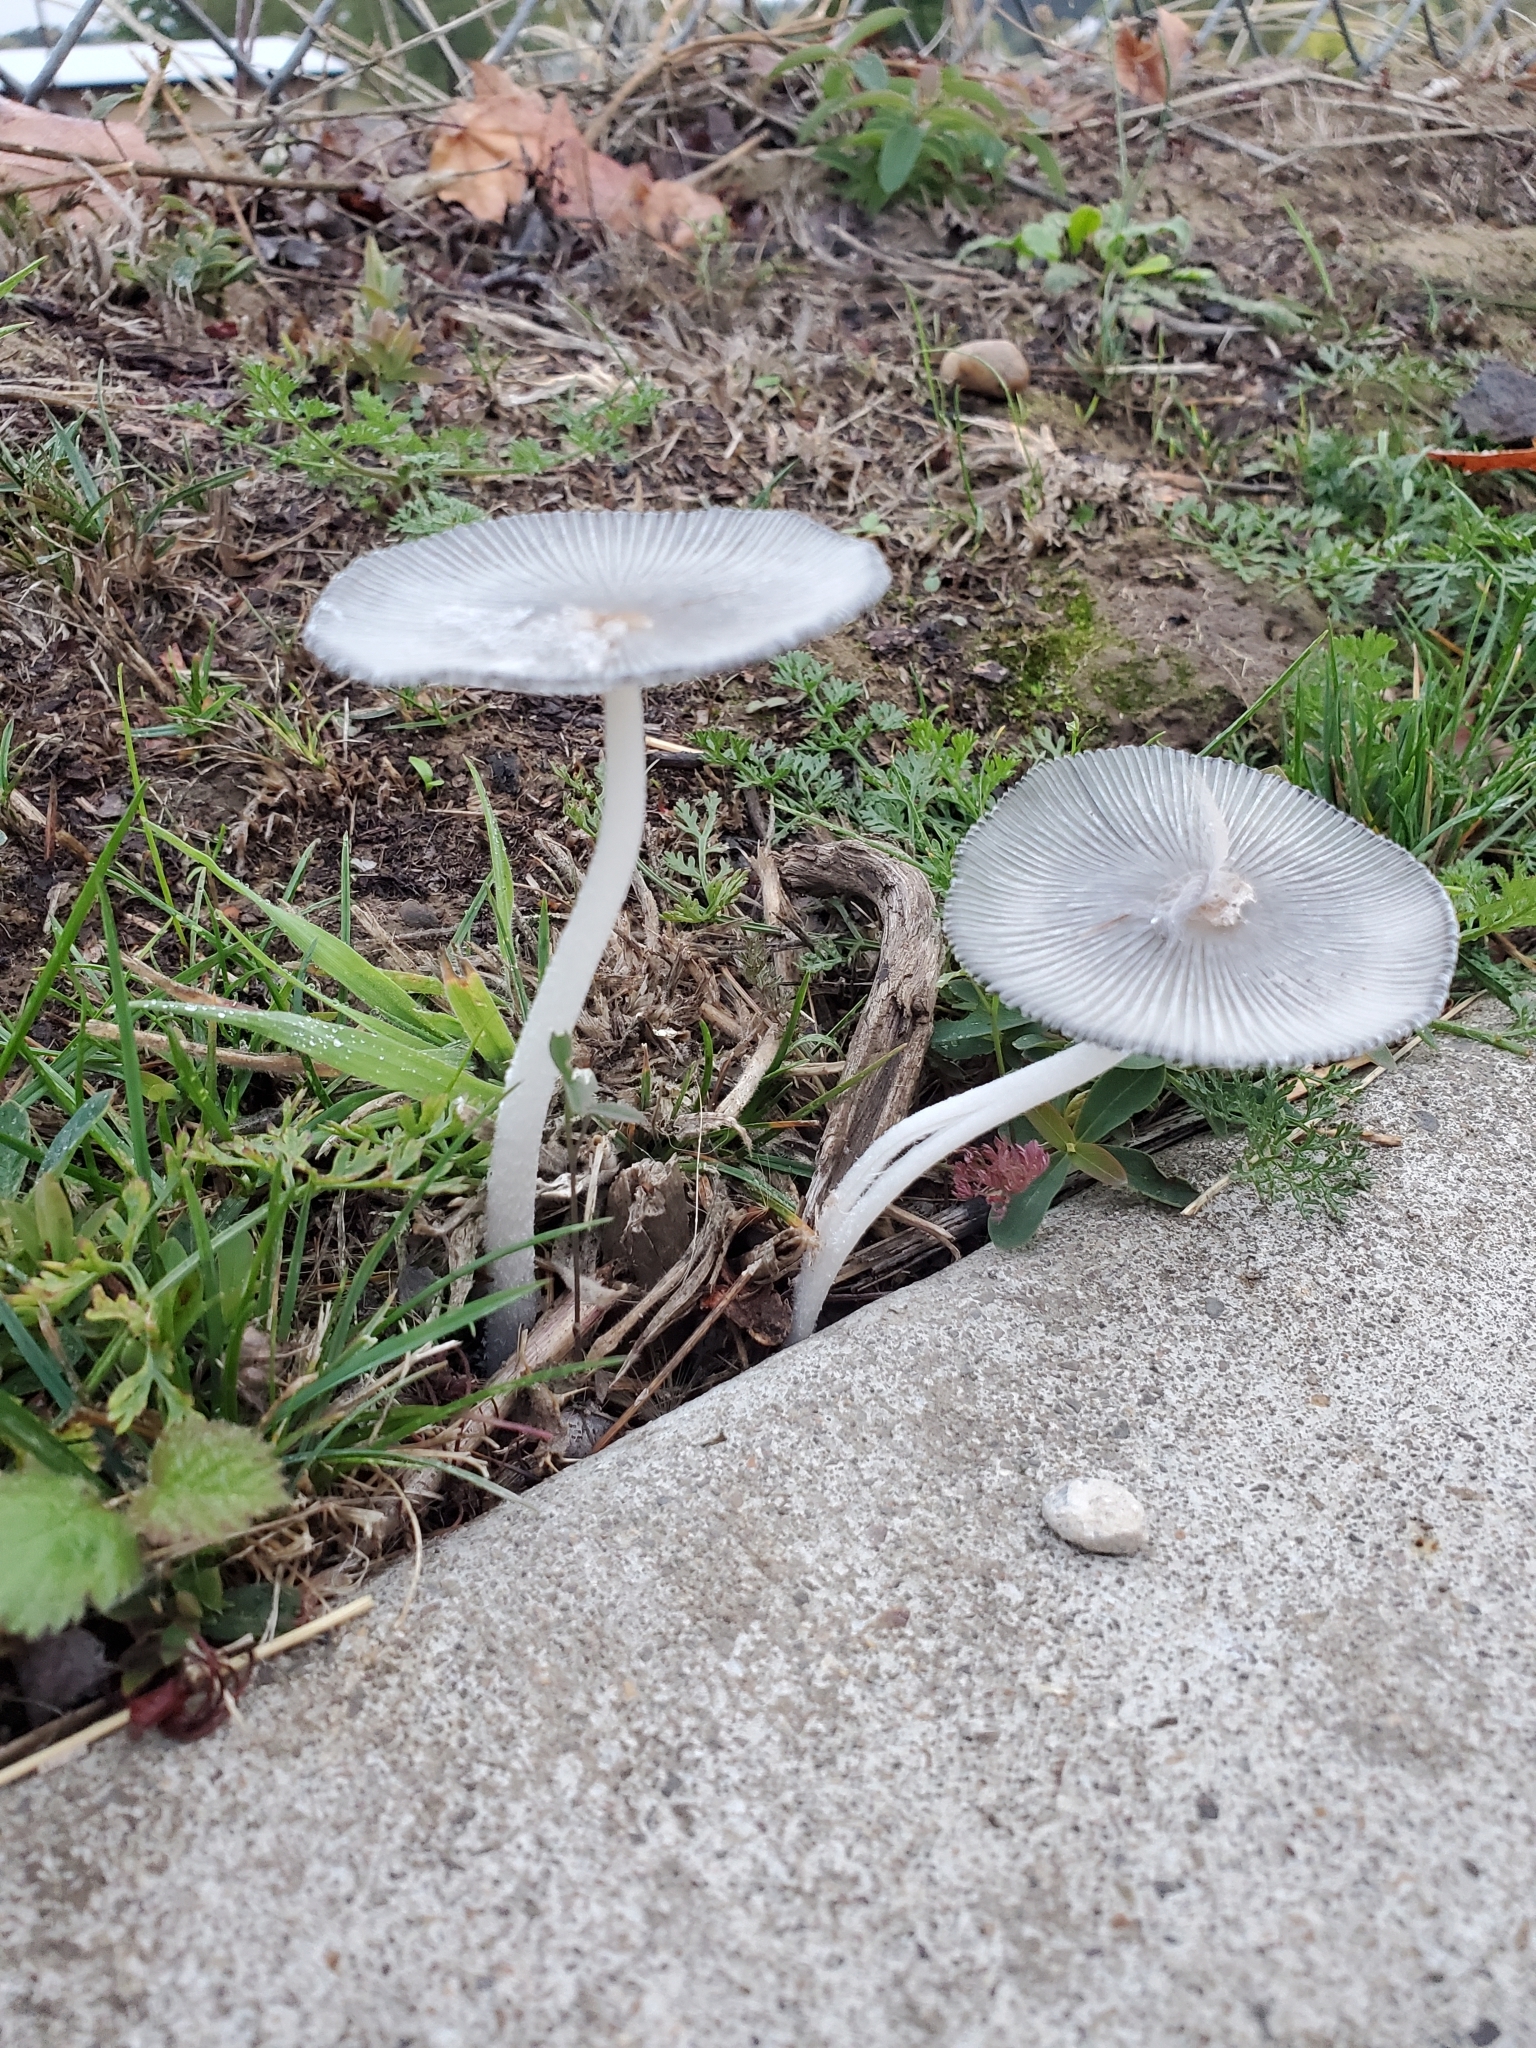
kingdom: Fungi
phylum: Basidiomycota
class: Agaricomycetes
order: Agaricales
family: Psathyrellaceae
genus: Coprinopsis
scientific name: Coprinopsis lagopus
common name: Hare'sfoot inkcap
